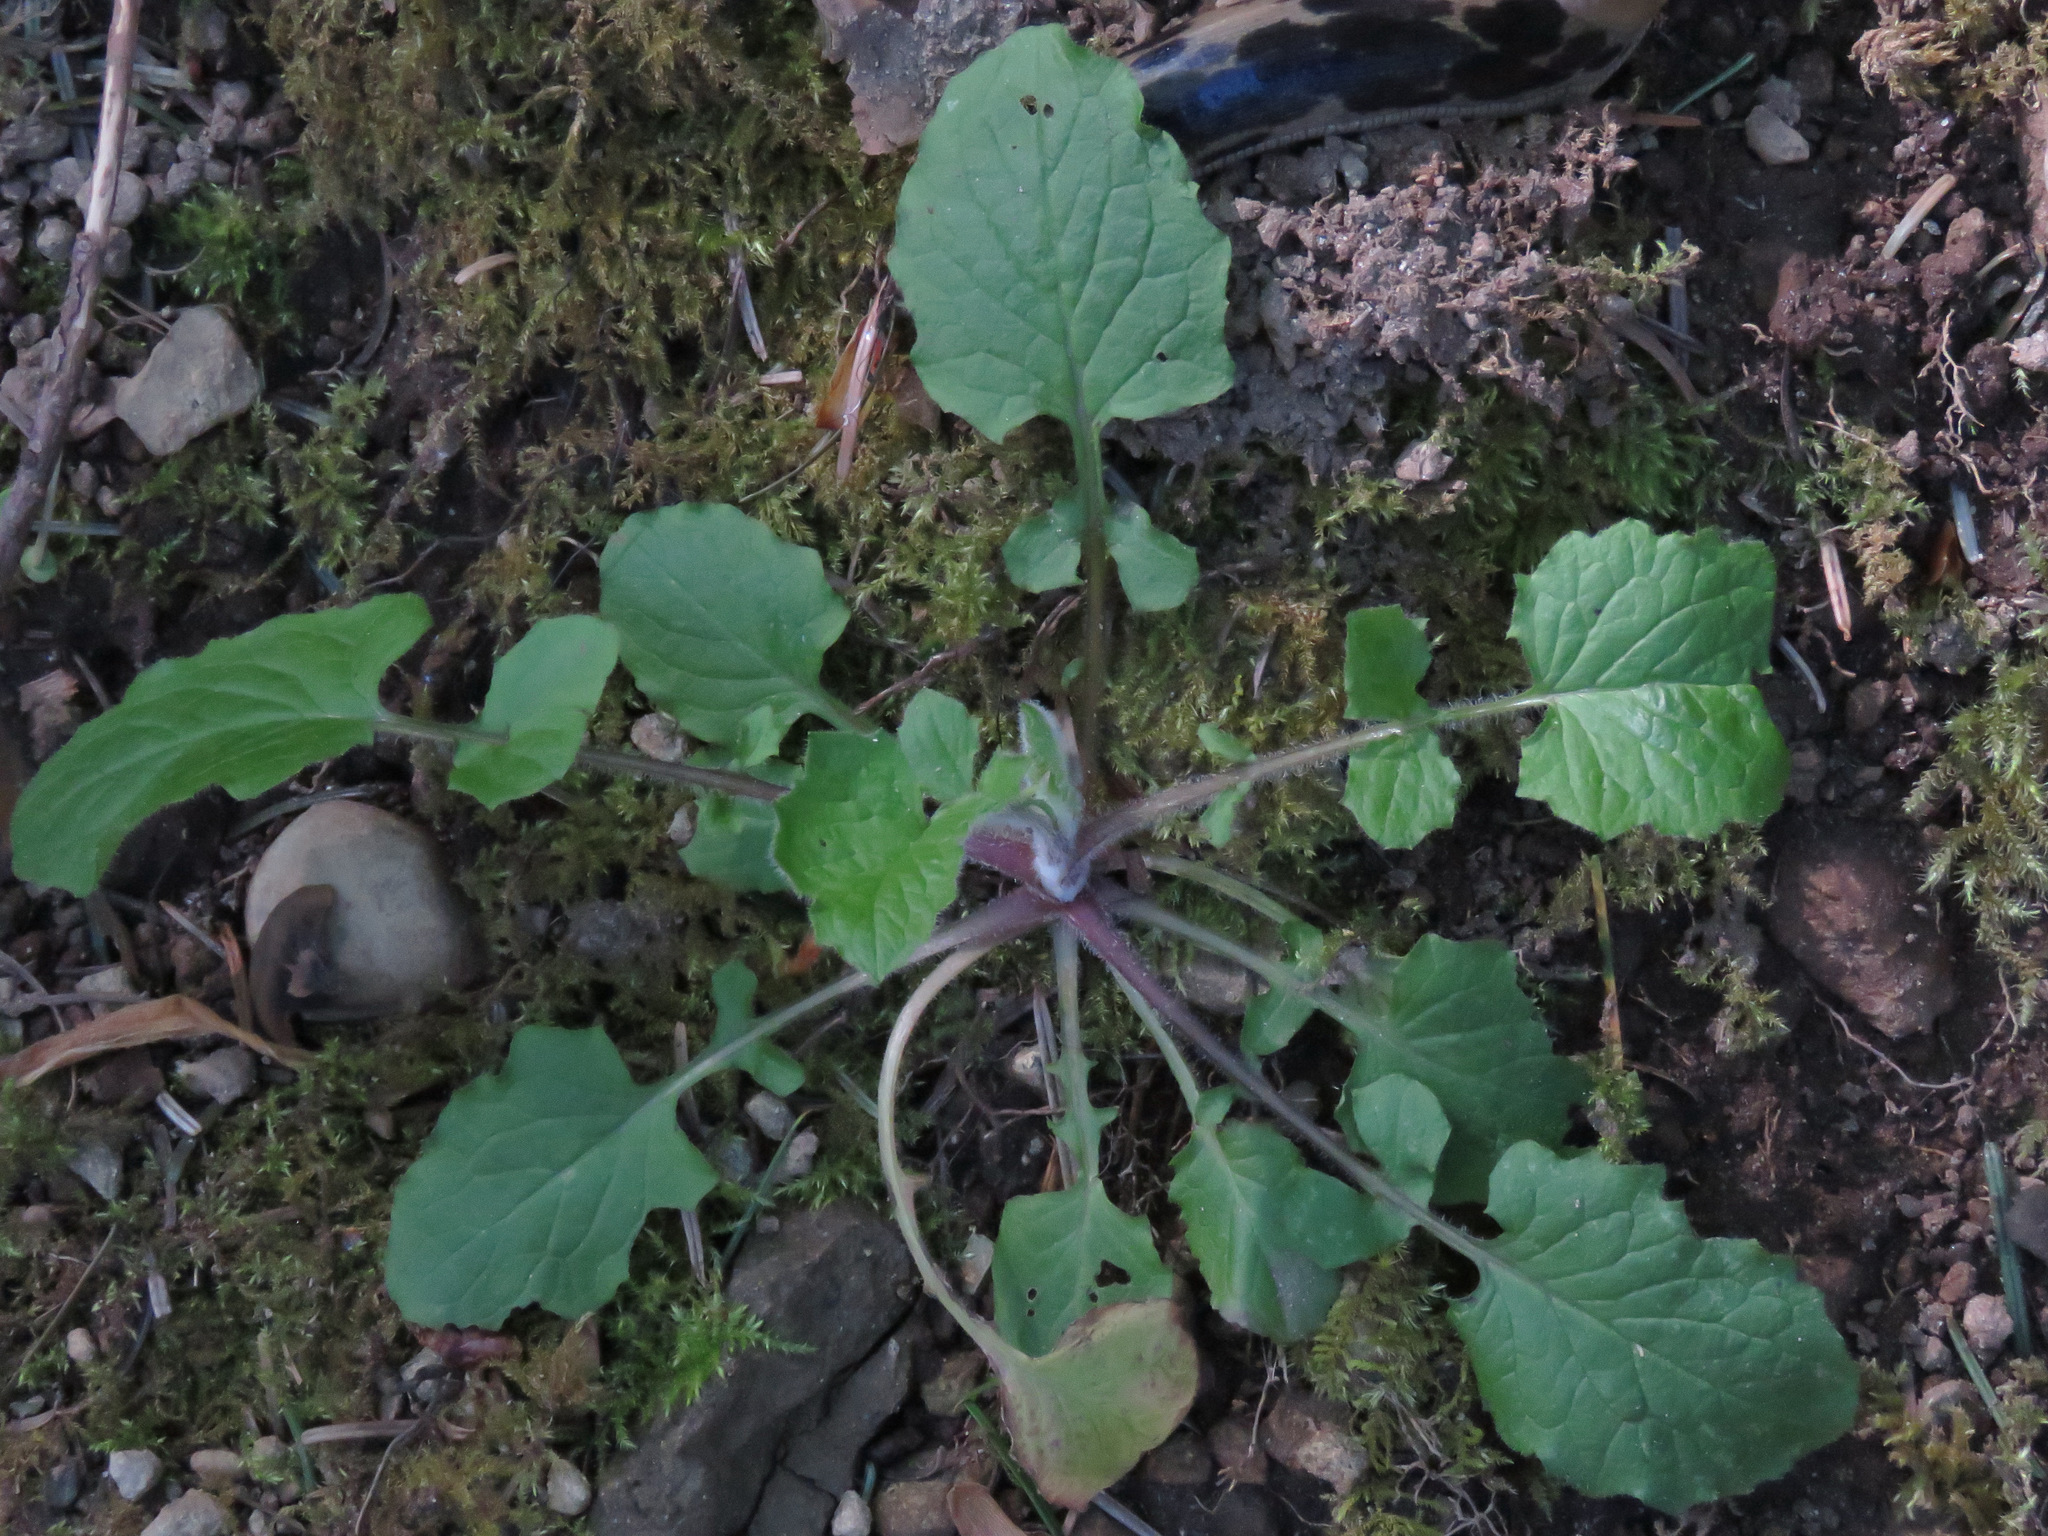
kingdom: Plantae
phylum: Tracheophyta
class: Magnoliopsida
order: Asterales
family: Asteraceae
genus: Lapsana
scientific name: Lapsana communis
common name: Nipplewort
